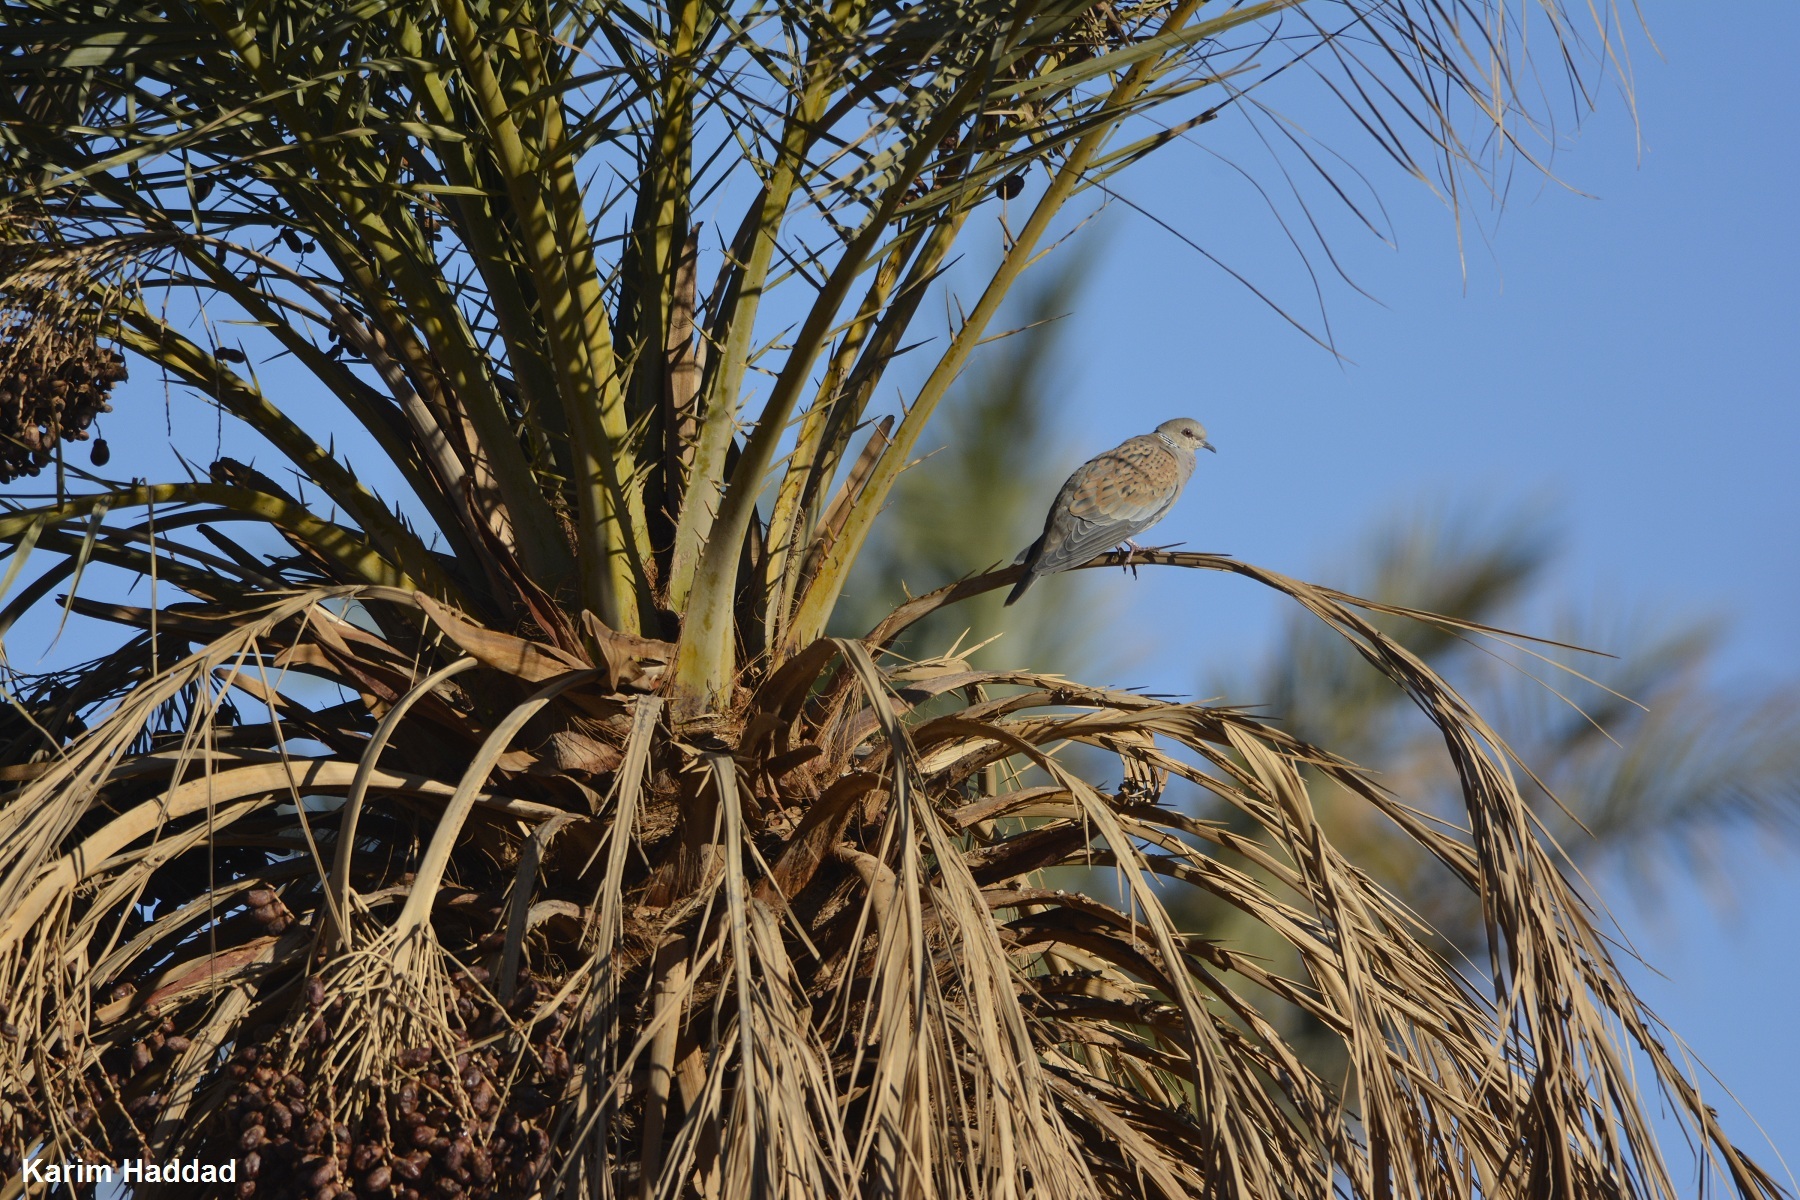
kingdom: Animalia
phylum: Chordata
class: Aves
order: Columbiformes
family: Columbidae
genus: Streptopelia
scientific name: Streptopelia turtur
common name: European turtle dove
